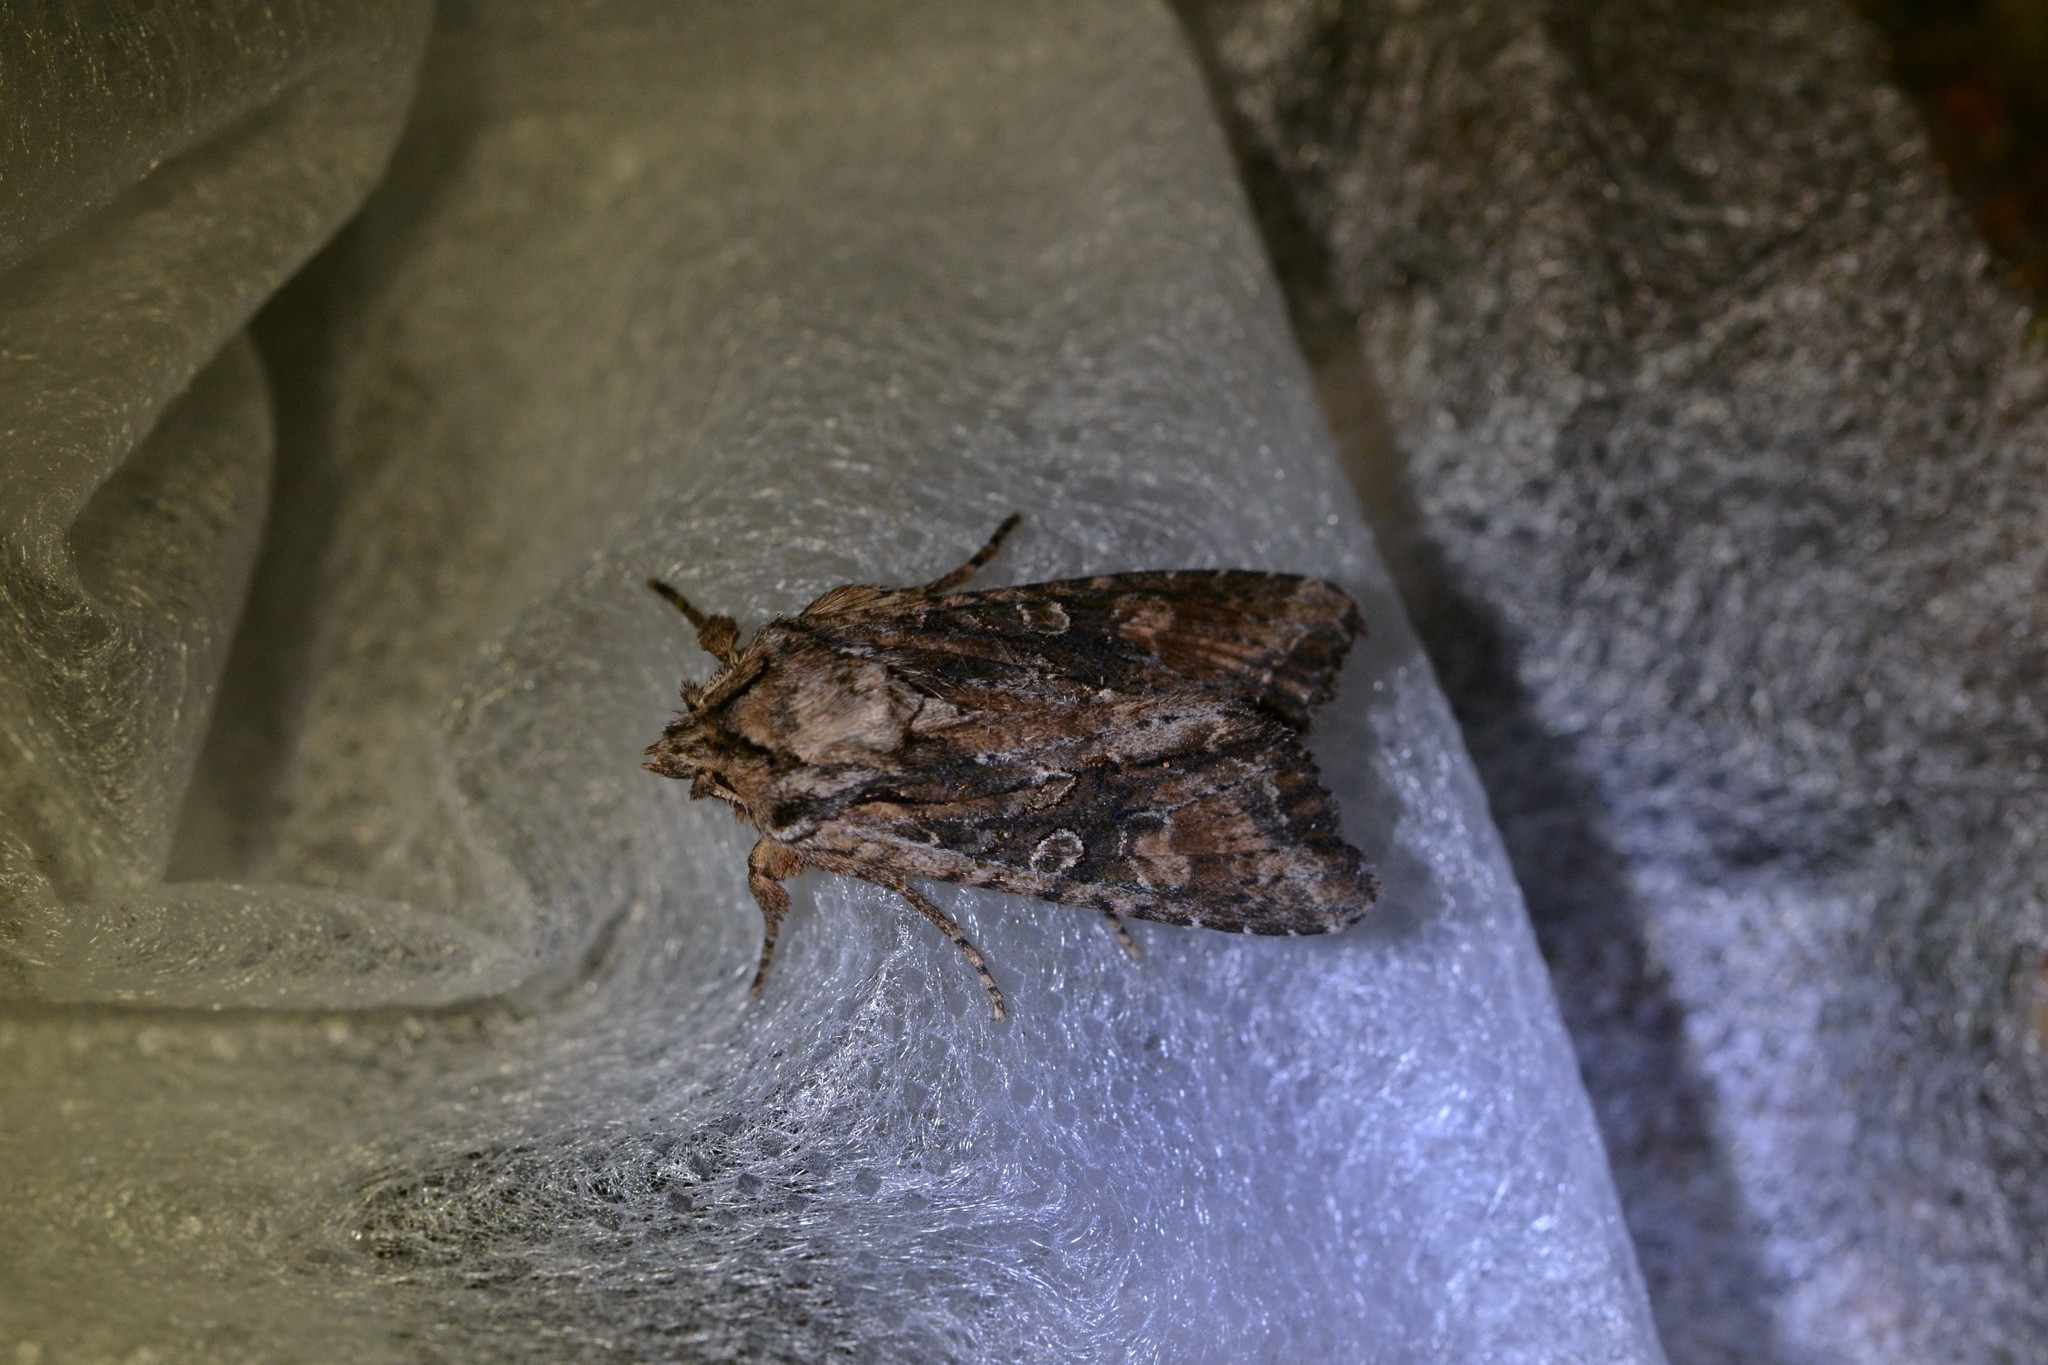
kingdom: Animalia
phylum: Arthropoda
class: Insecta
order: Lepidoptera
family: Noctuidae
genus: Ichneutica
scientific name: Ichneutica mutans
